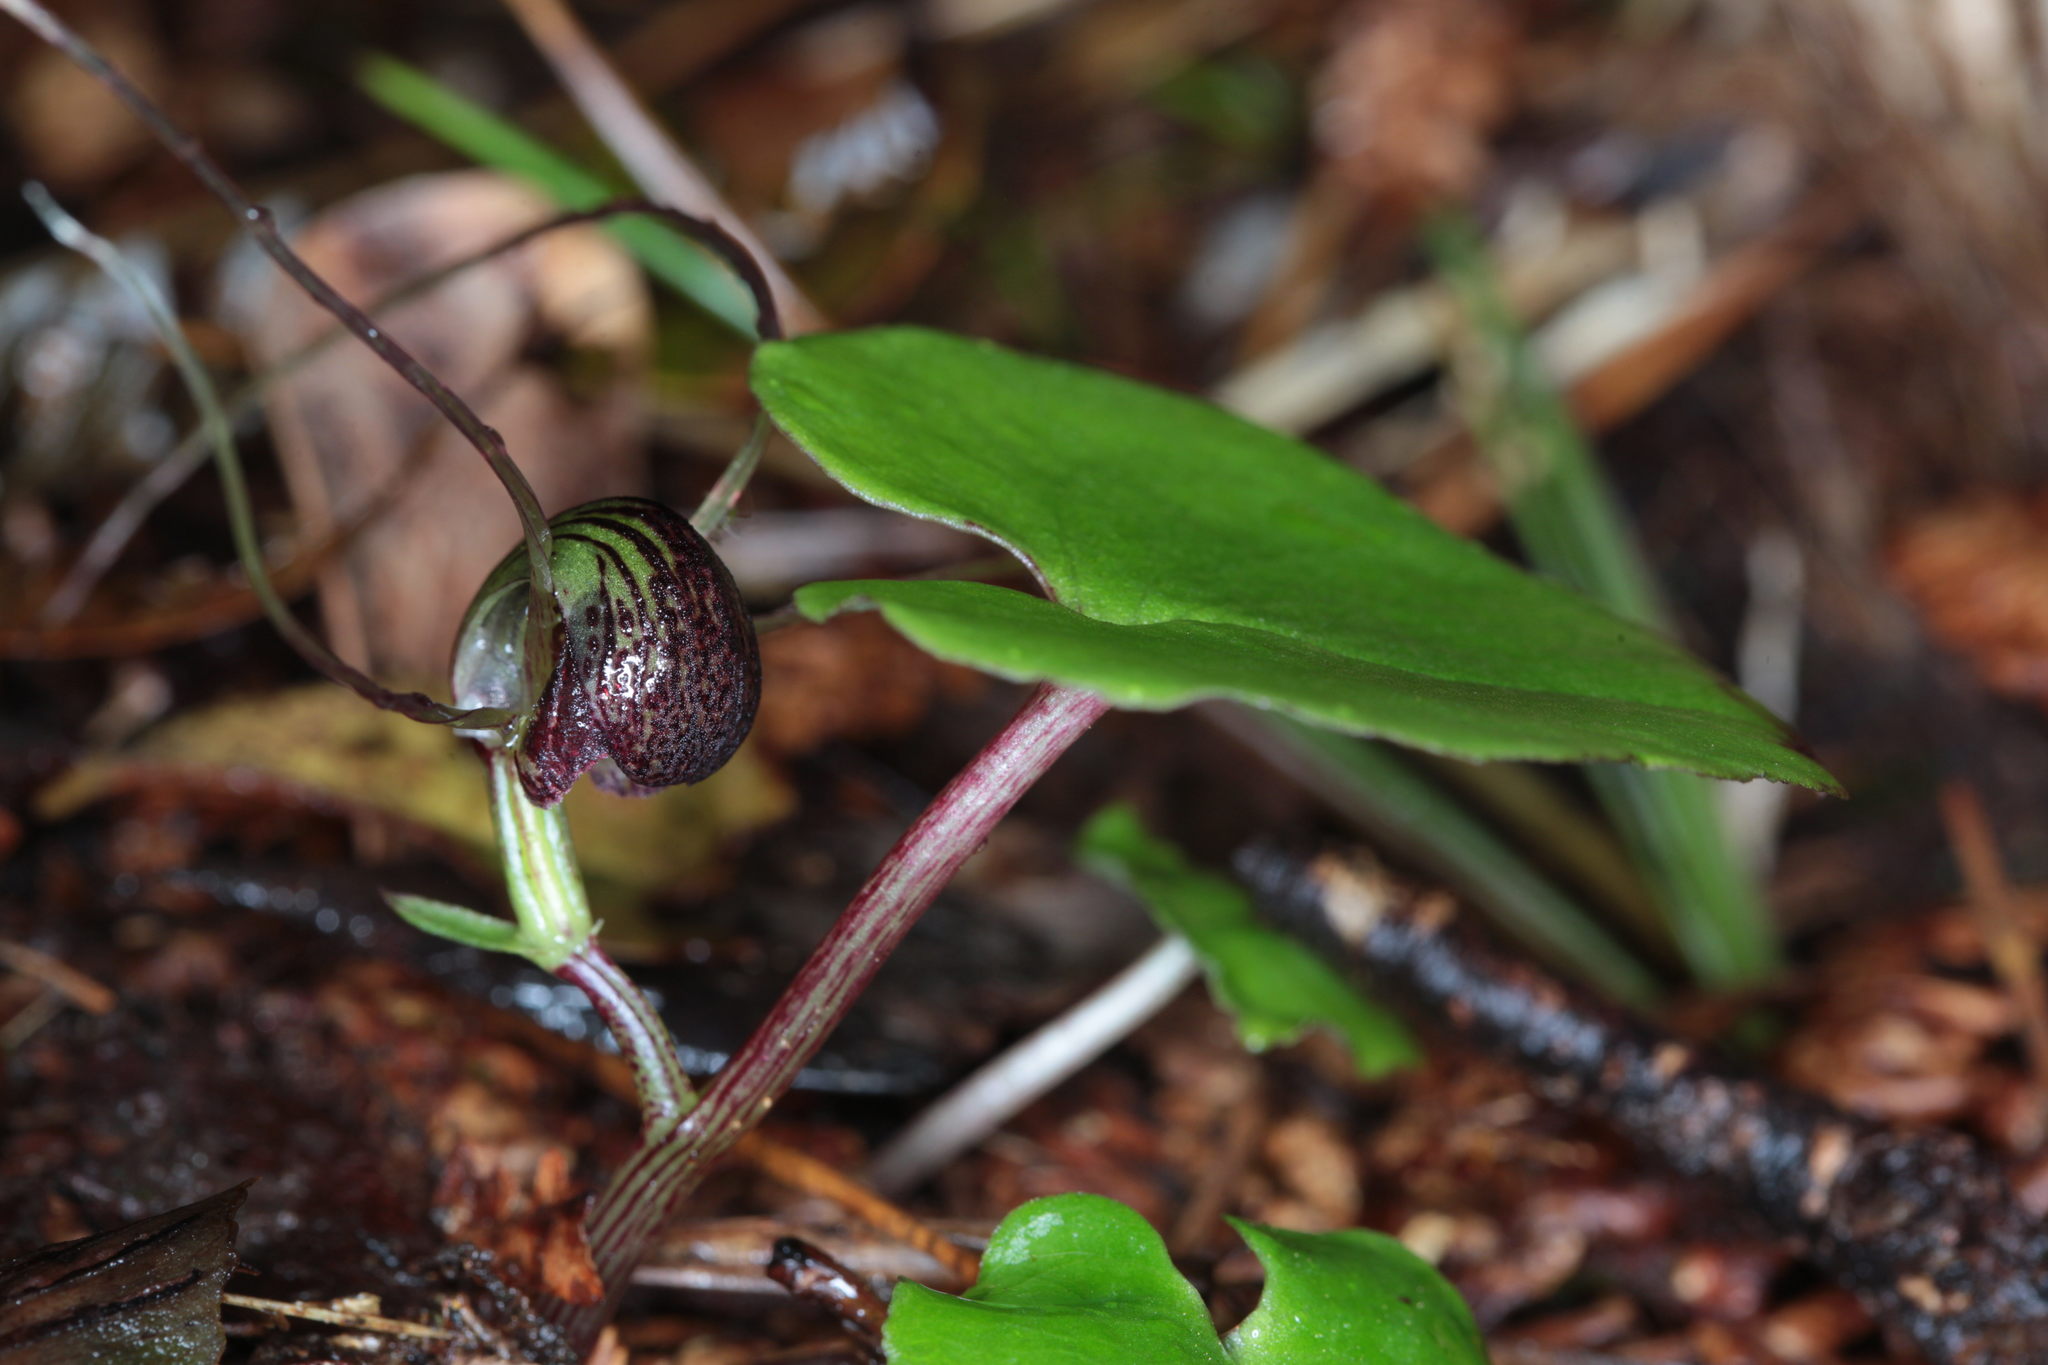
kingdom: Plantae
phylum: Tracheophyta
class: Liliopsida
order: Asparagales
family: Orchidaceae
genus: Corybas
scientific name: Corybas sulcatus
